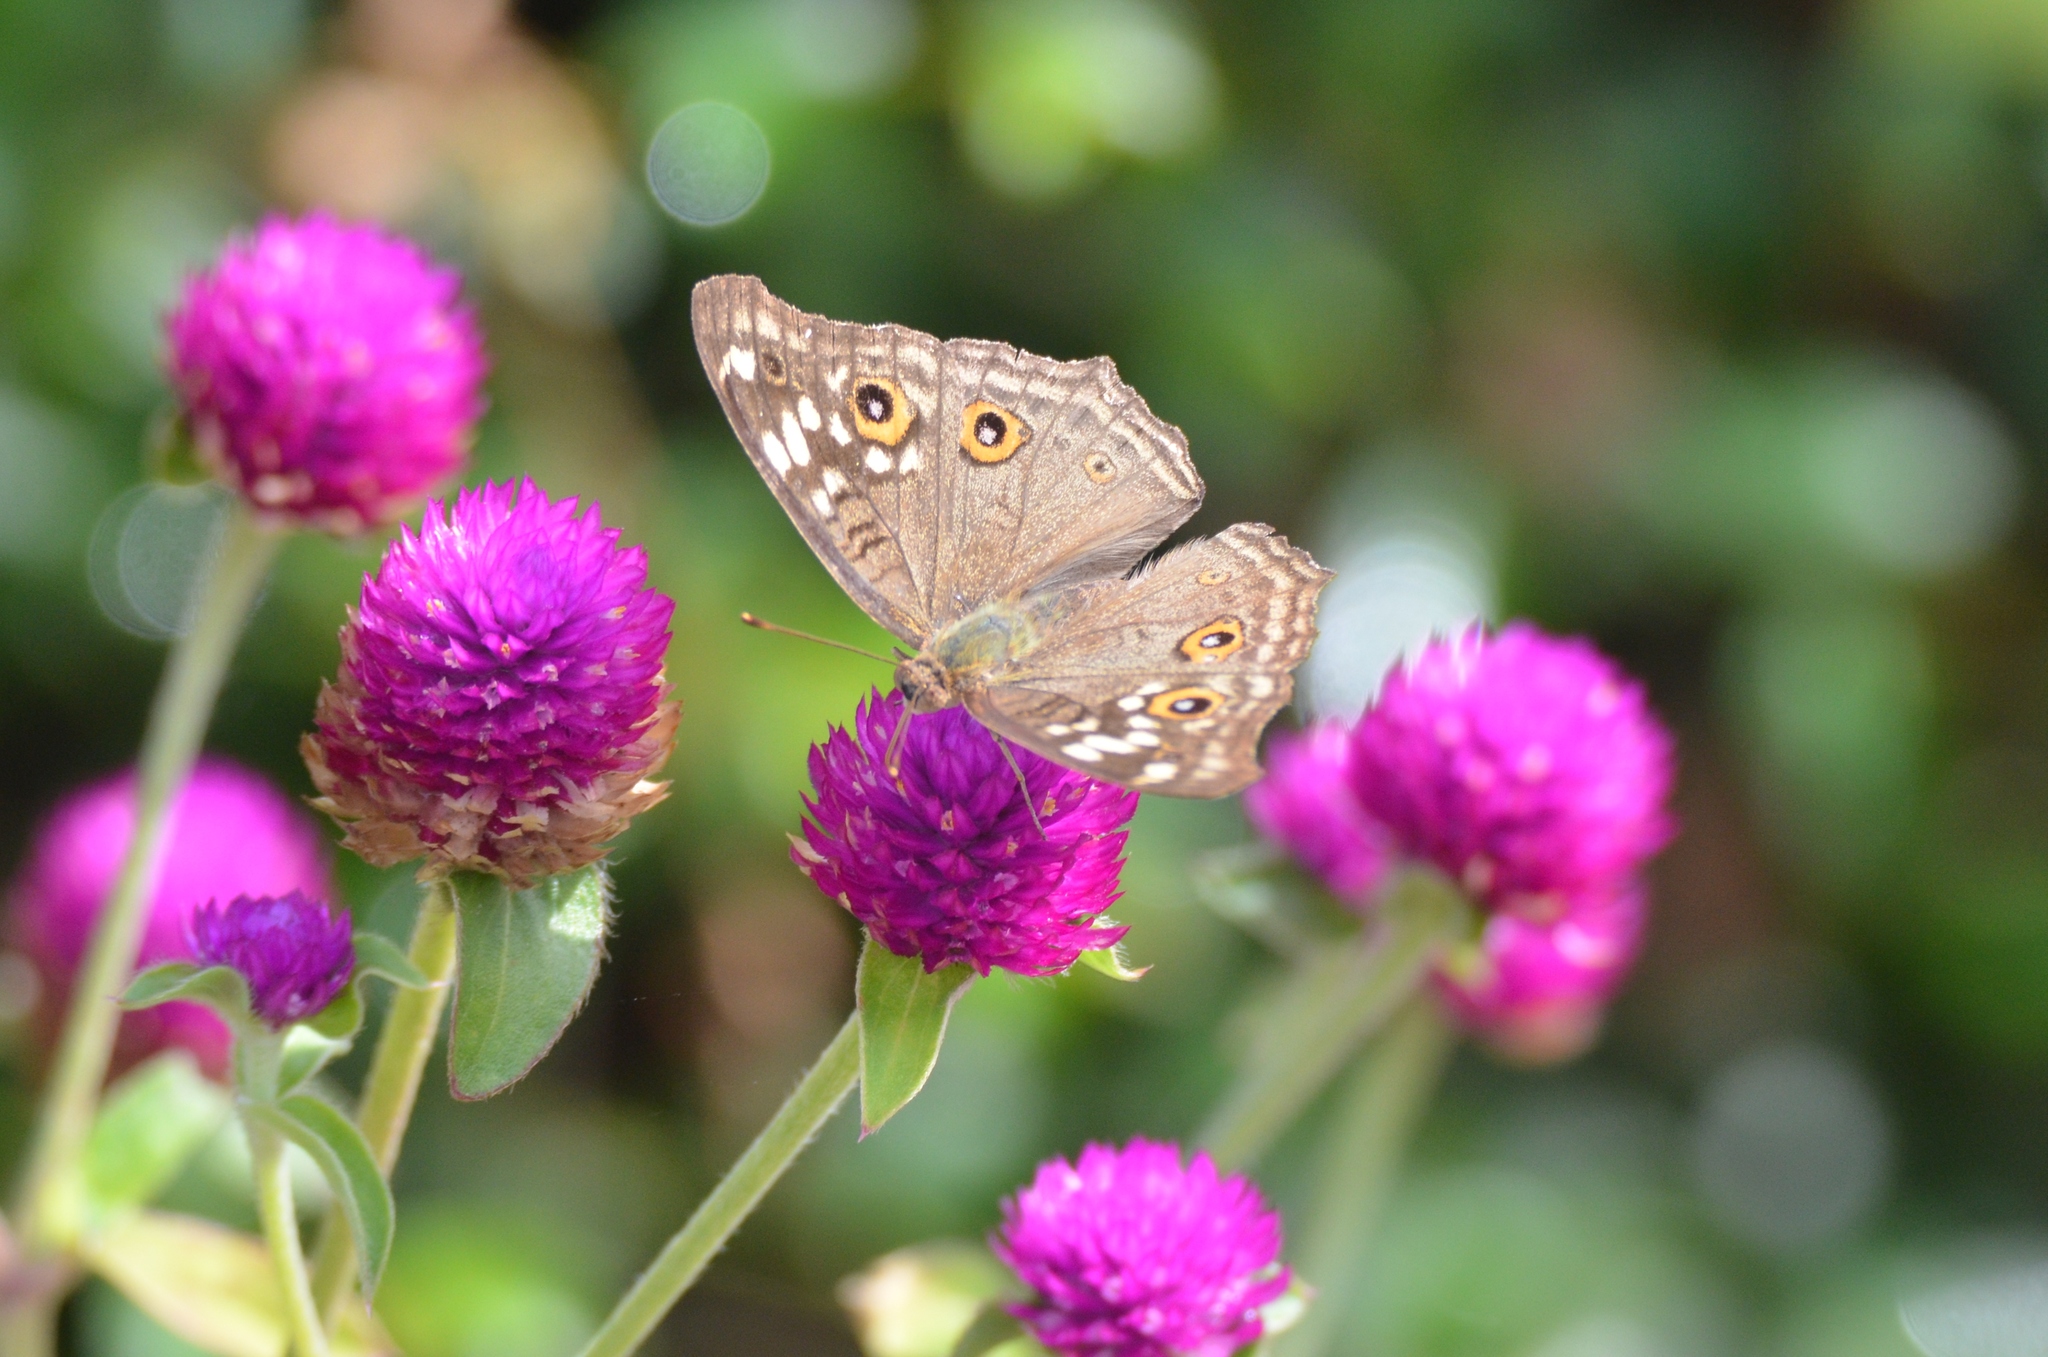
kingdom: Animalia
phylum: Arthropoda
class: Insecta
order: Lepidoptera
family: Nymphalidae
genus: Junonia
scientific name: Junonia lemonias
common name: Lemon pansy
